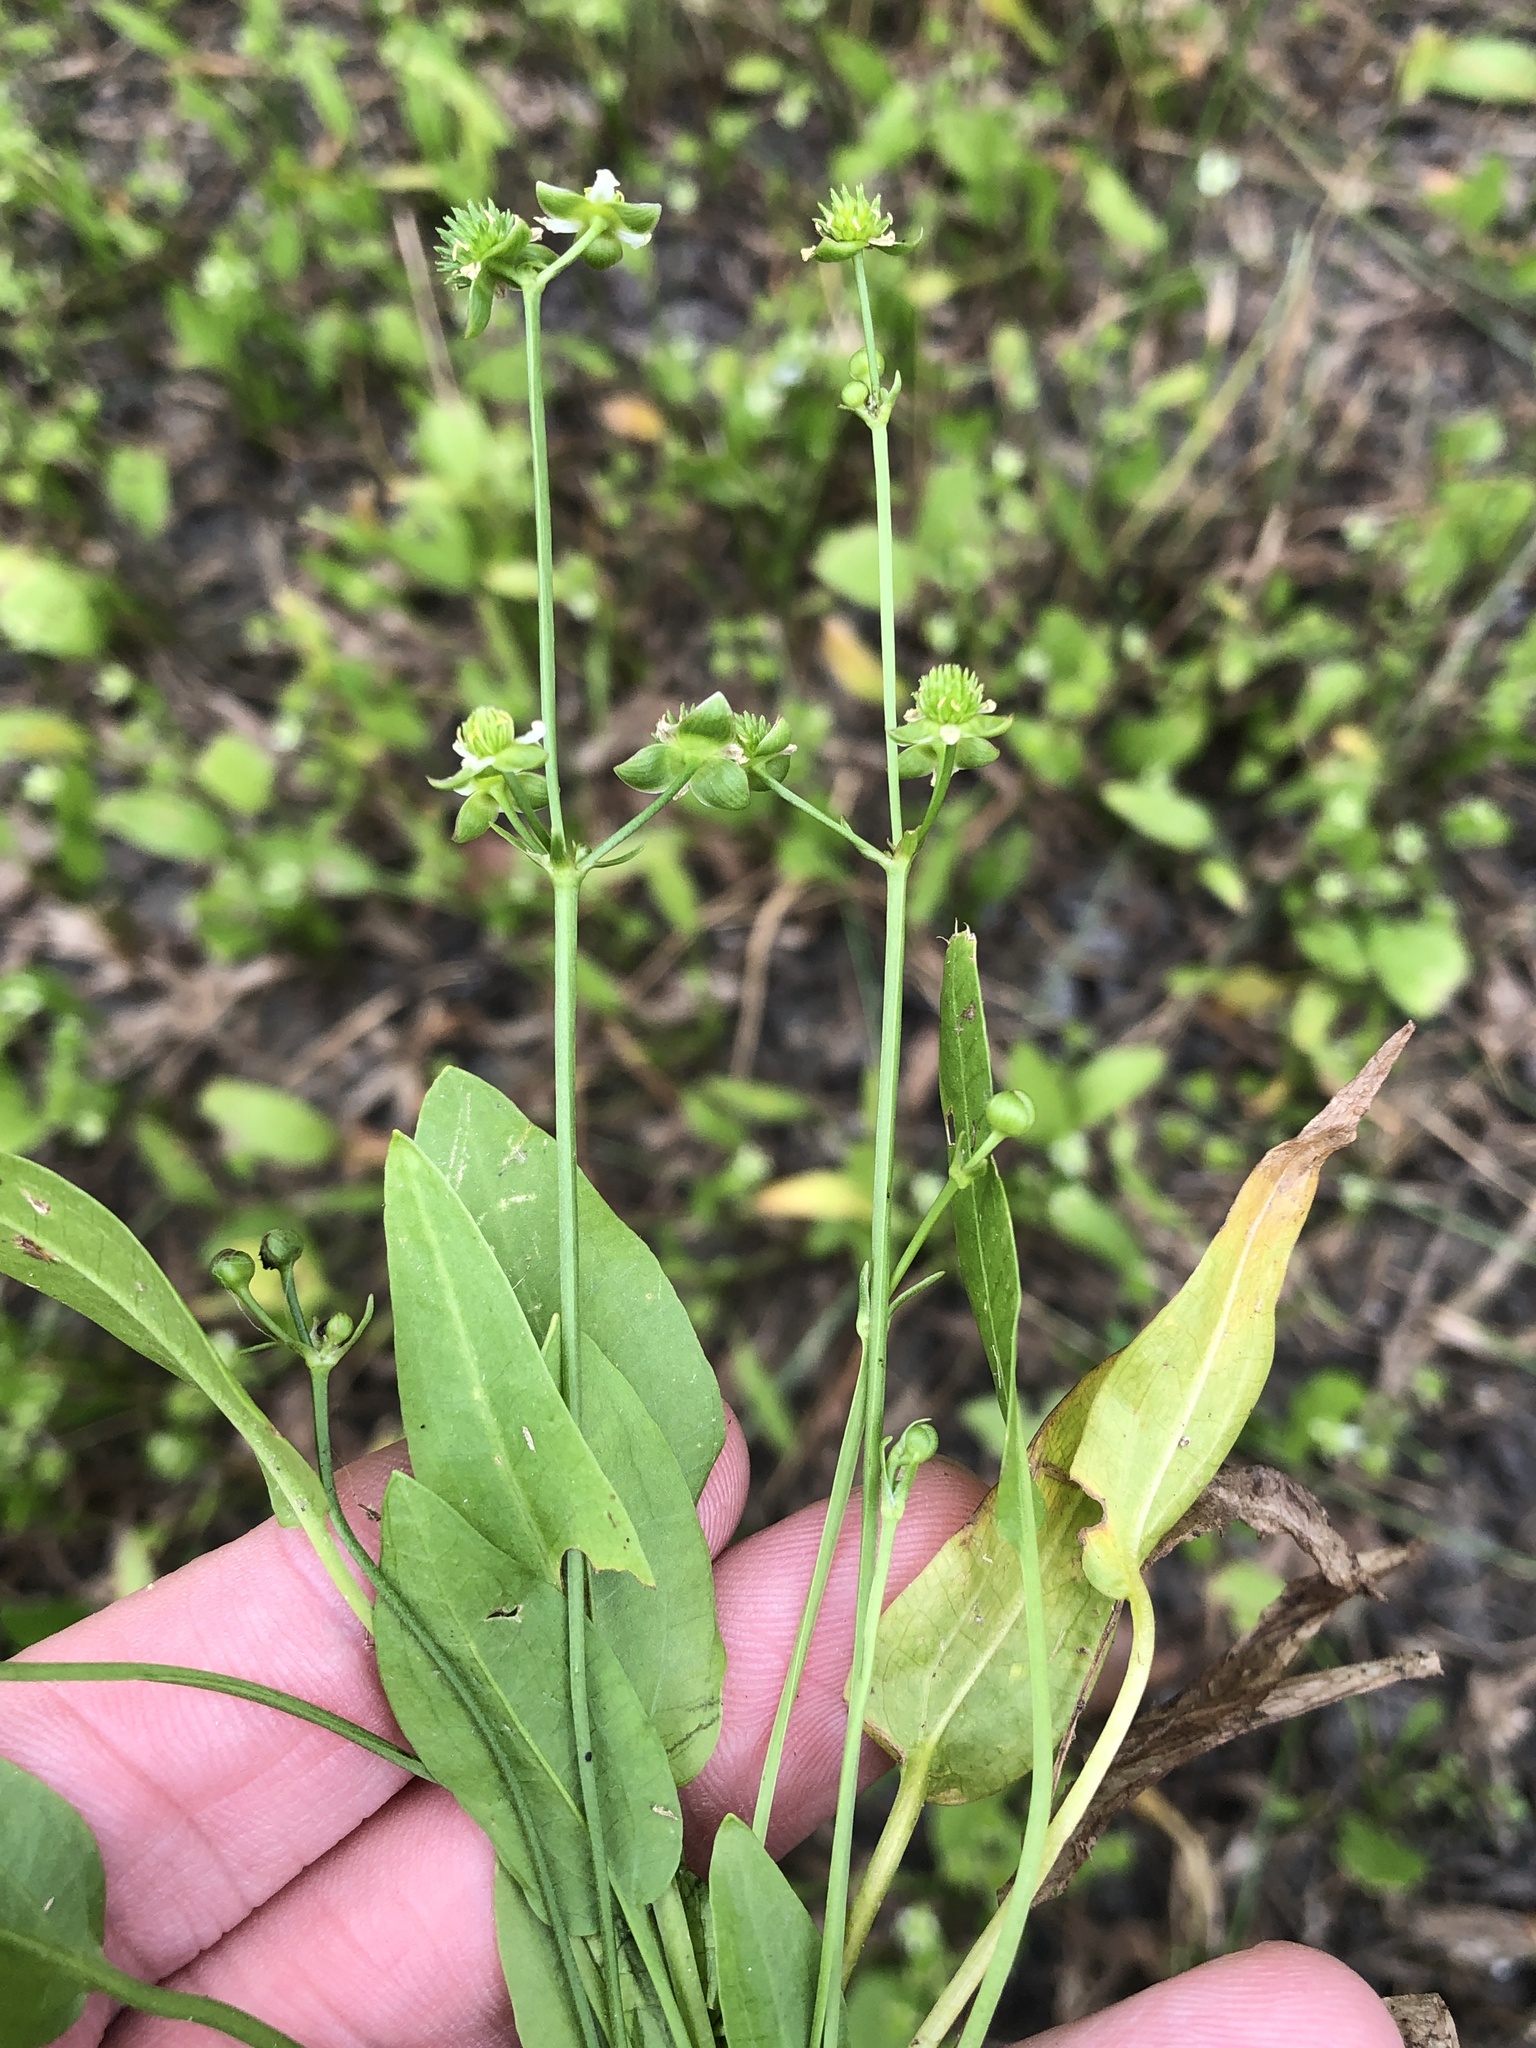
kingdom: Plantae
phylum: Tracheophyta
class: Liliopsida
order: Alismatales
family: Alismataceae
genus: Echinodorus
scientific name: Echinodorus berteroi
